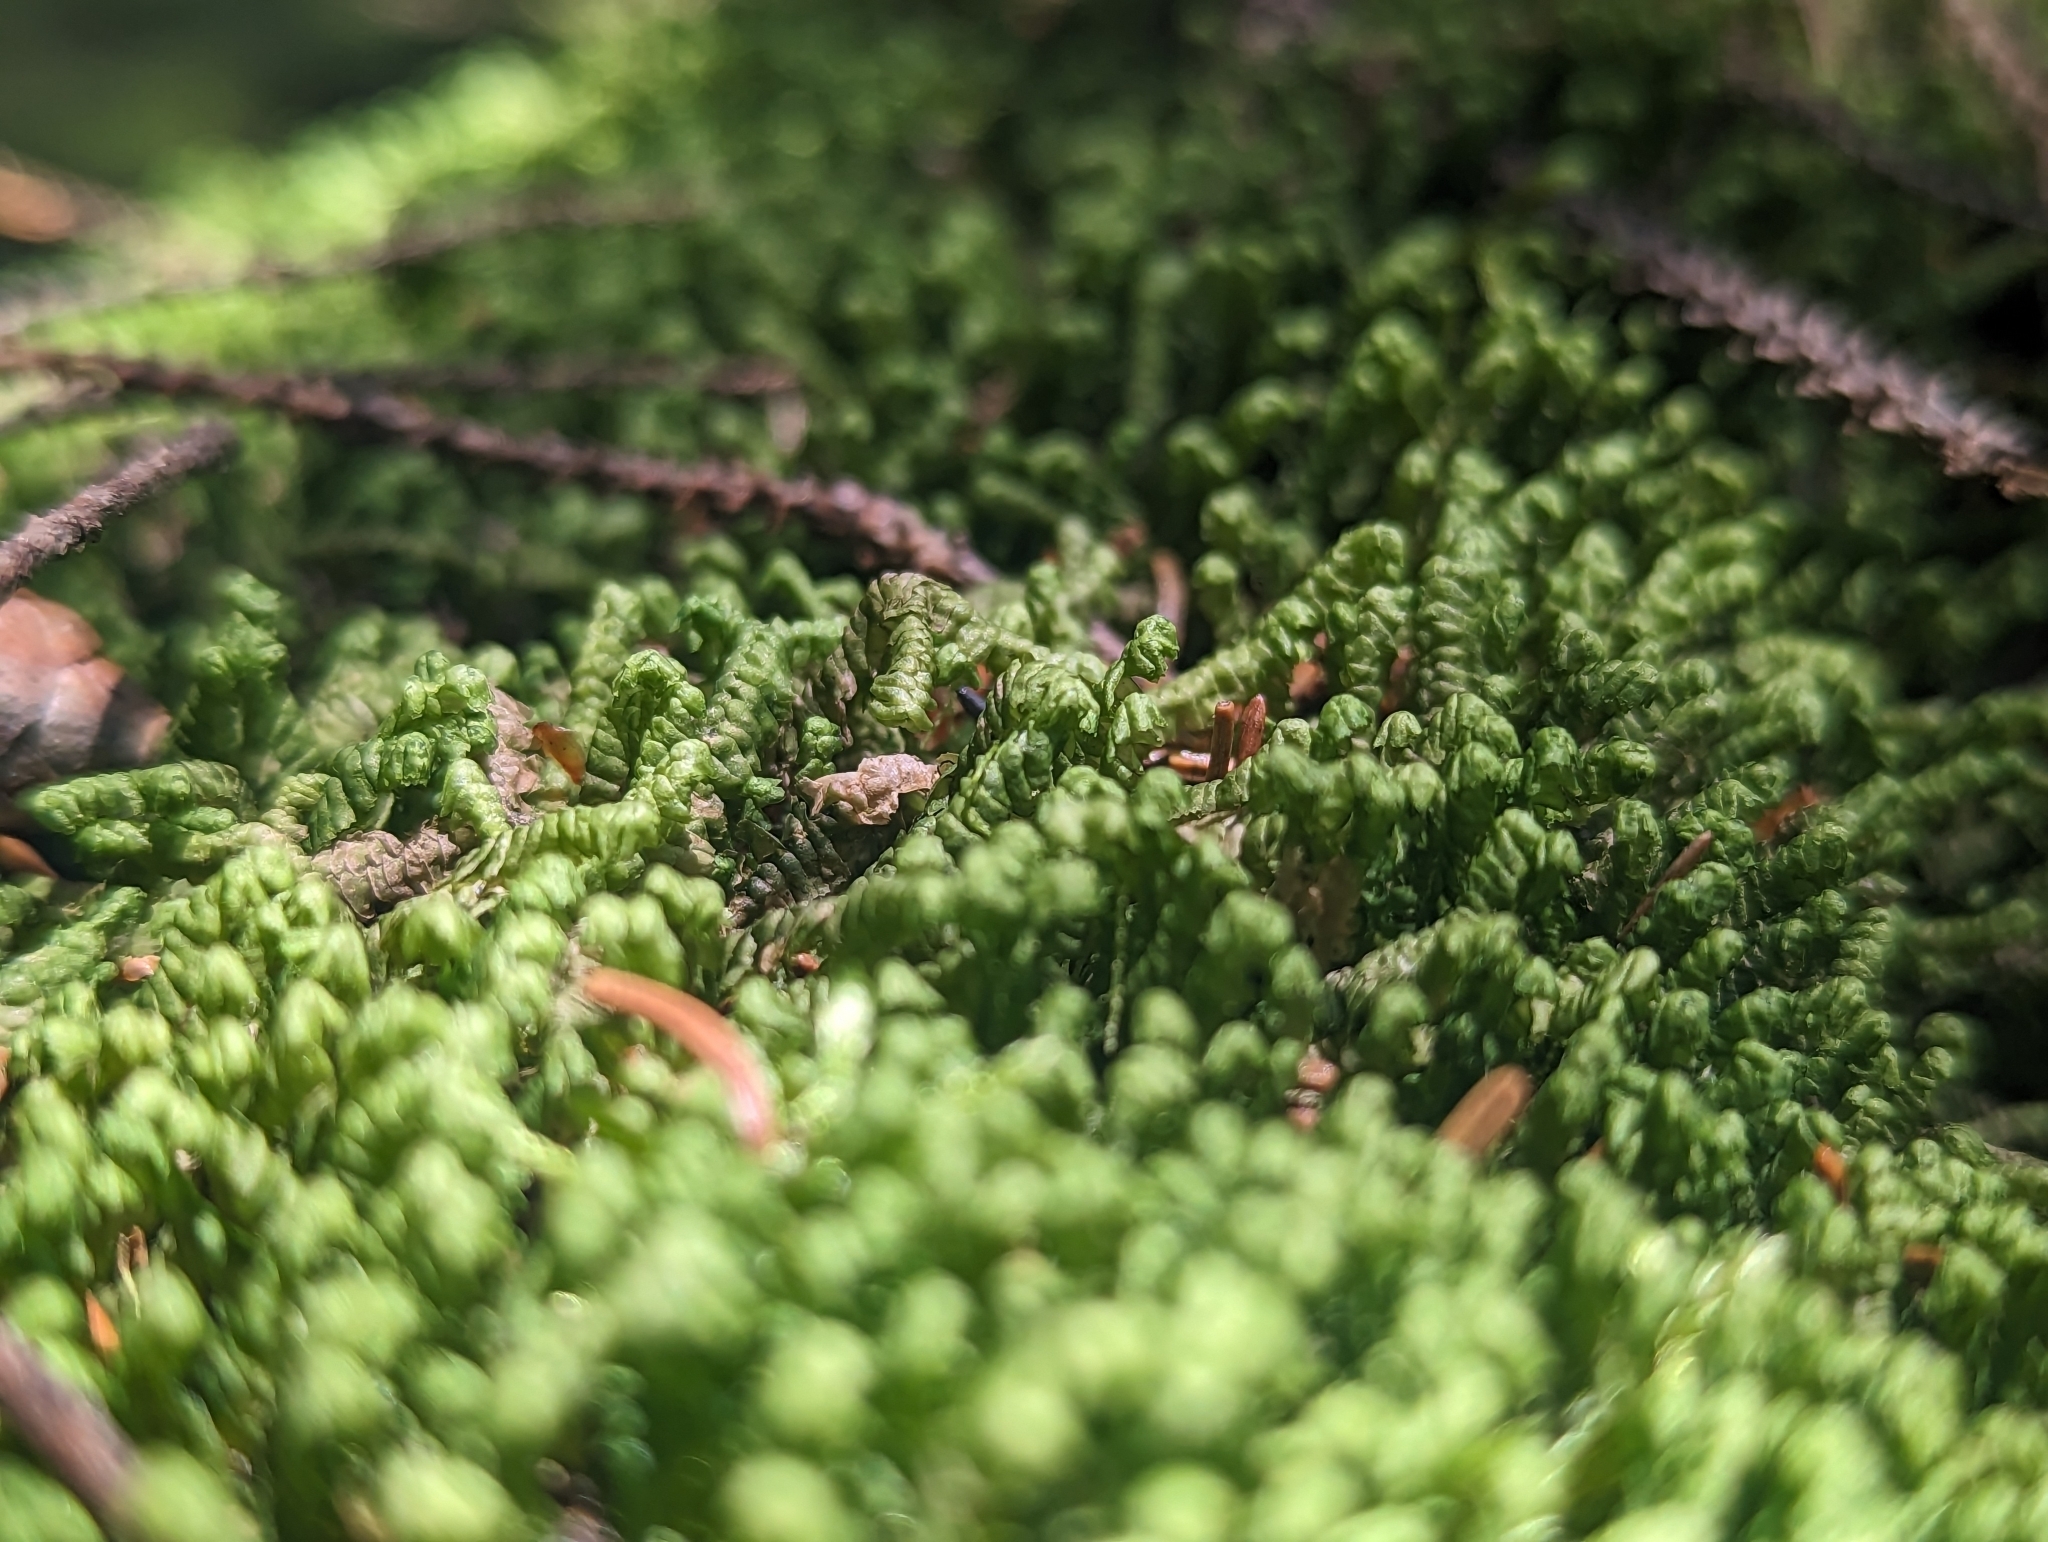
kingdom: Plantae
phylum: Marchantiophyta
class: Jungermanniopsida
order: Jungermanniales
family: Lepidoziaceae
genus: Bazzania
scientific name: Bazzania trilobata
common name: Three-lobed whipwort
